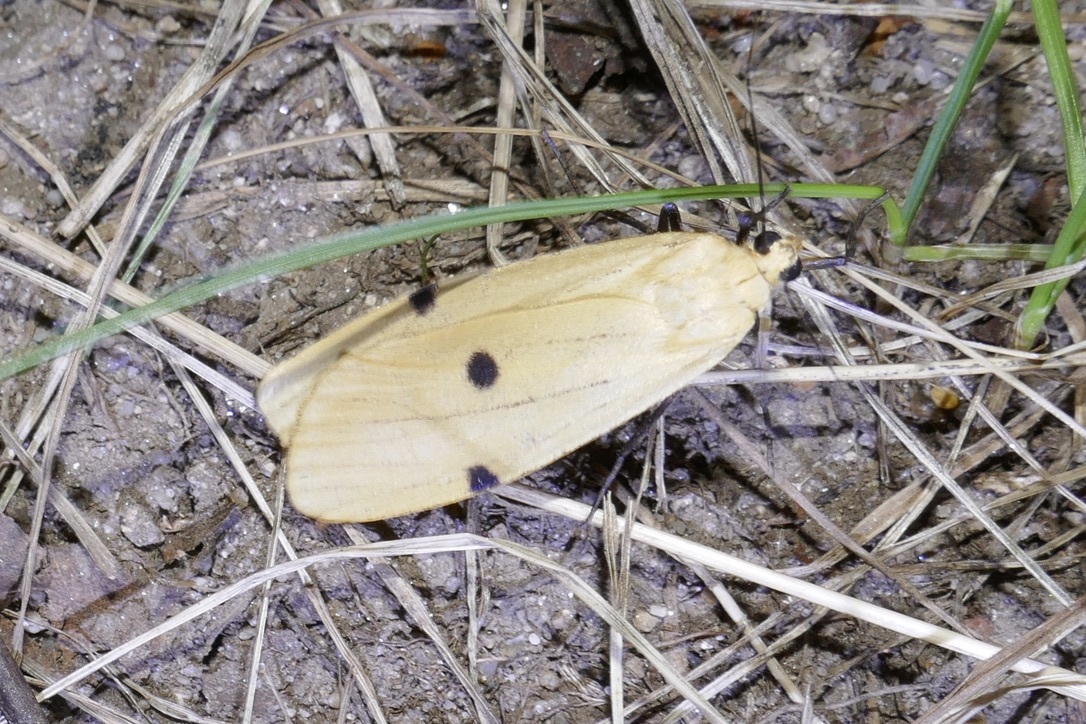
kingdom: Animalia
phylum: Arthropoda
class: Insecta
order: Lepidoptera
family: Erebidae
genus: Lithosia
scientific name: Lithosia quadra
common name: Four-spotted footman
